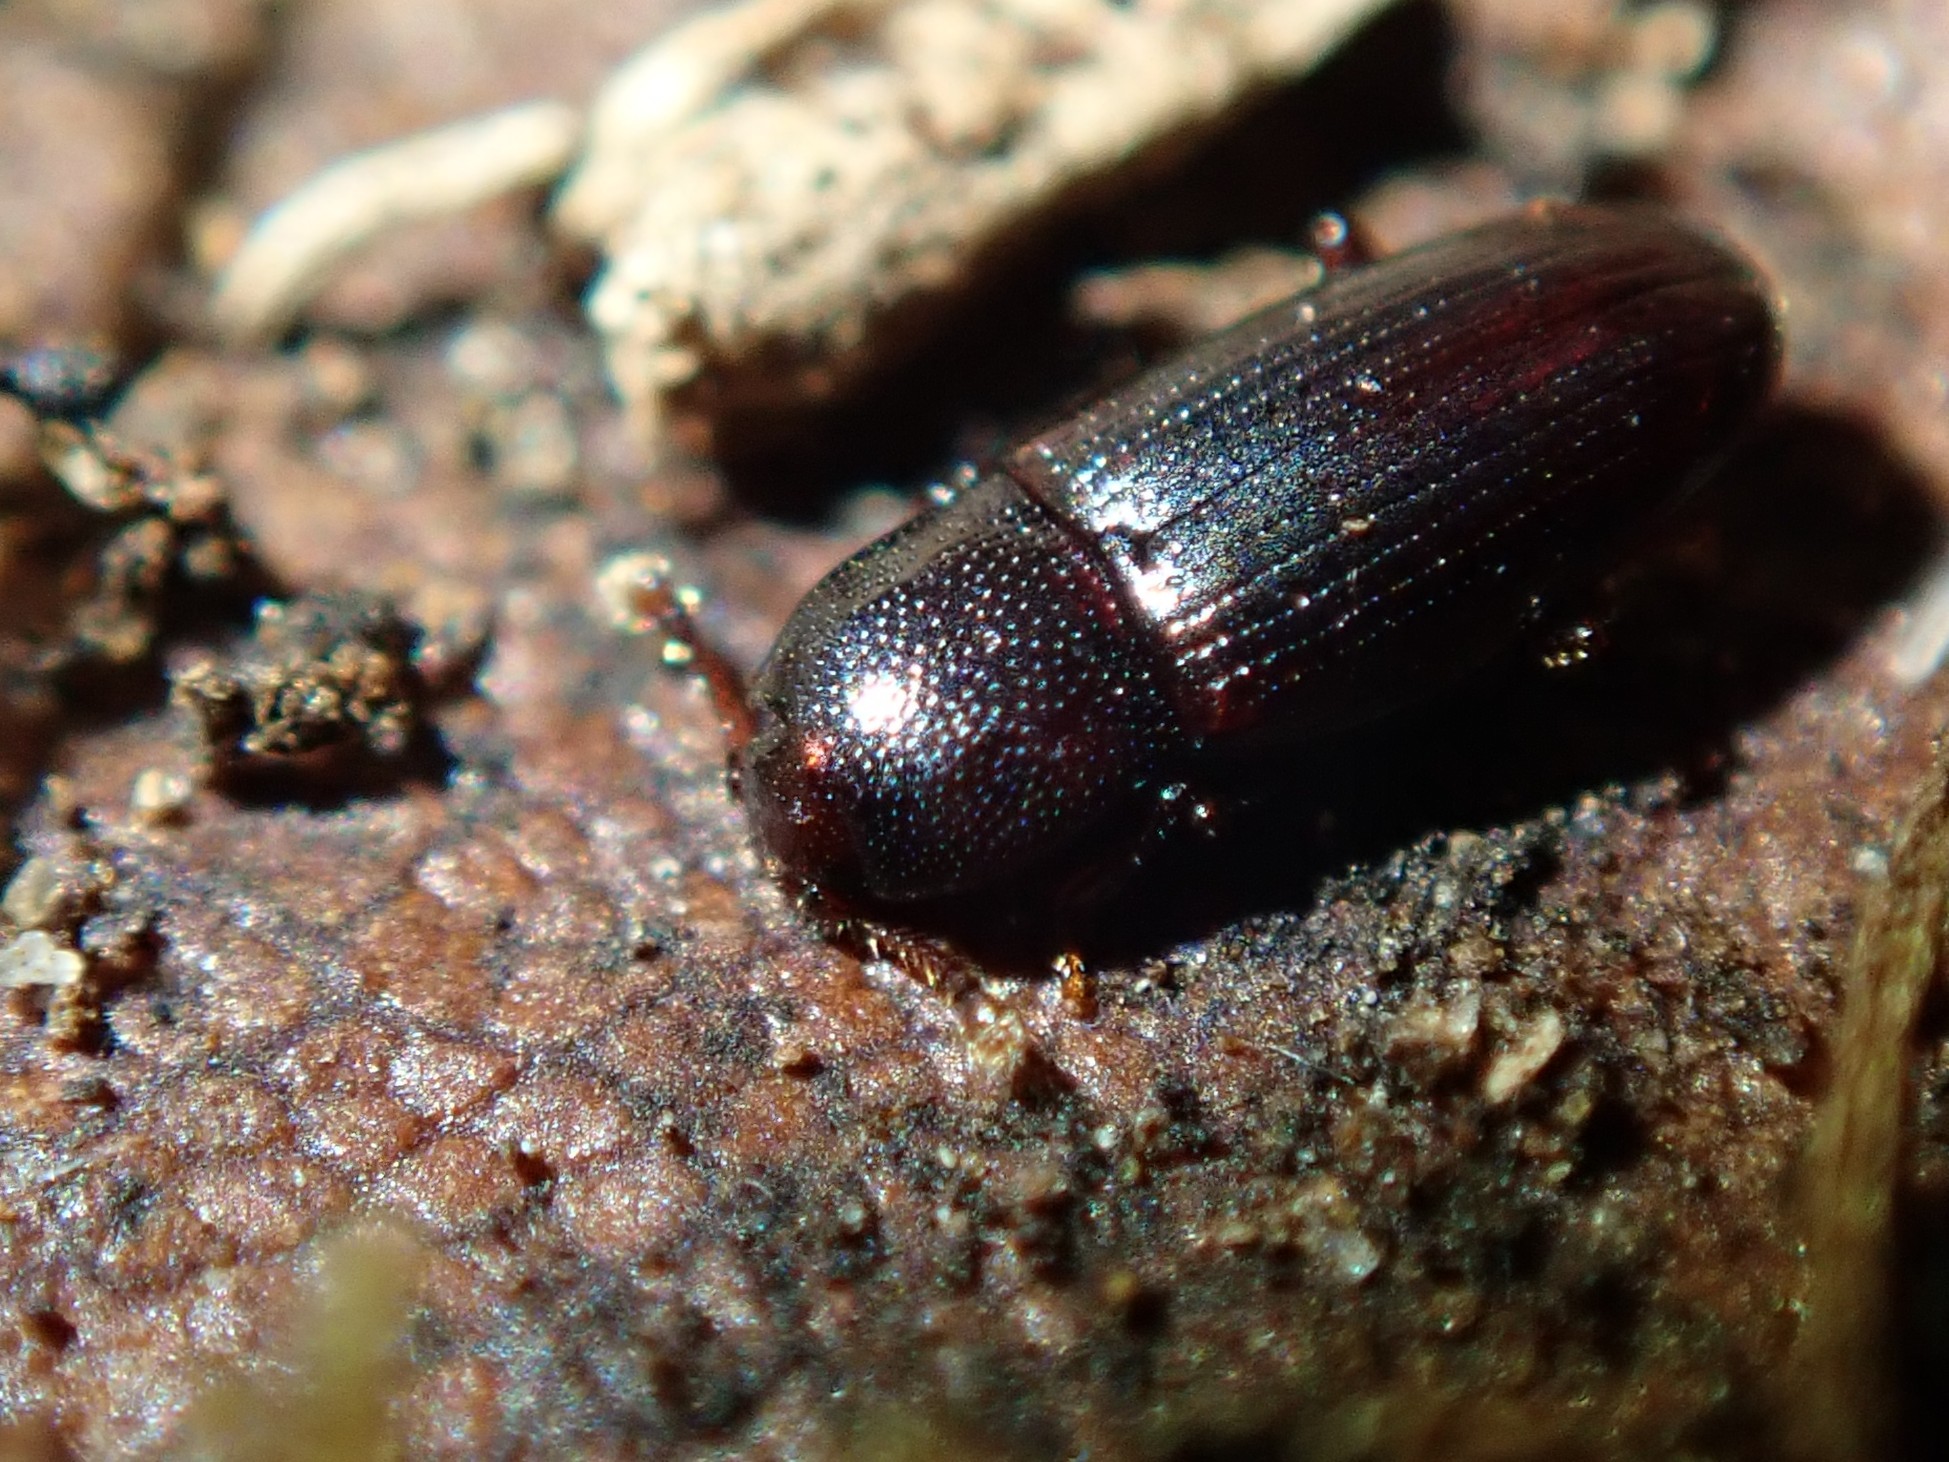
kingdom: Animalia
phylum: Arthropoda
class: Insecta
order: Coleoptera
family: Cerylonidae
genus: Cerylon
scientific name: Cerylon histeroides
